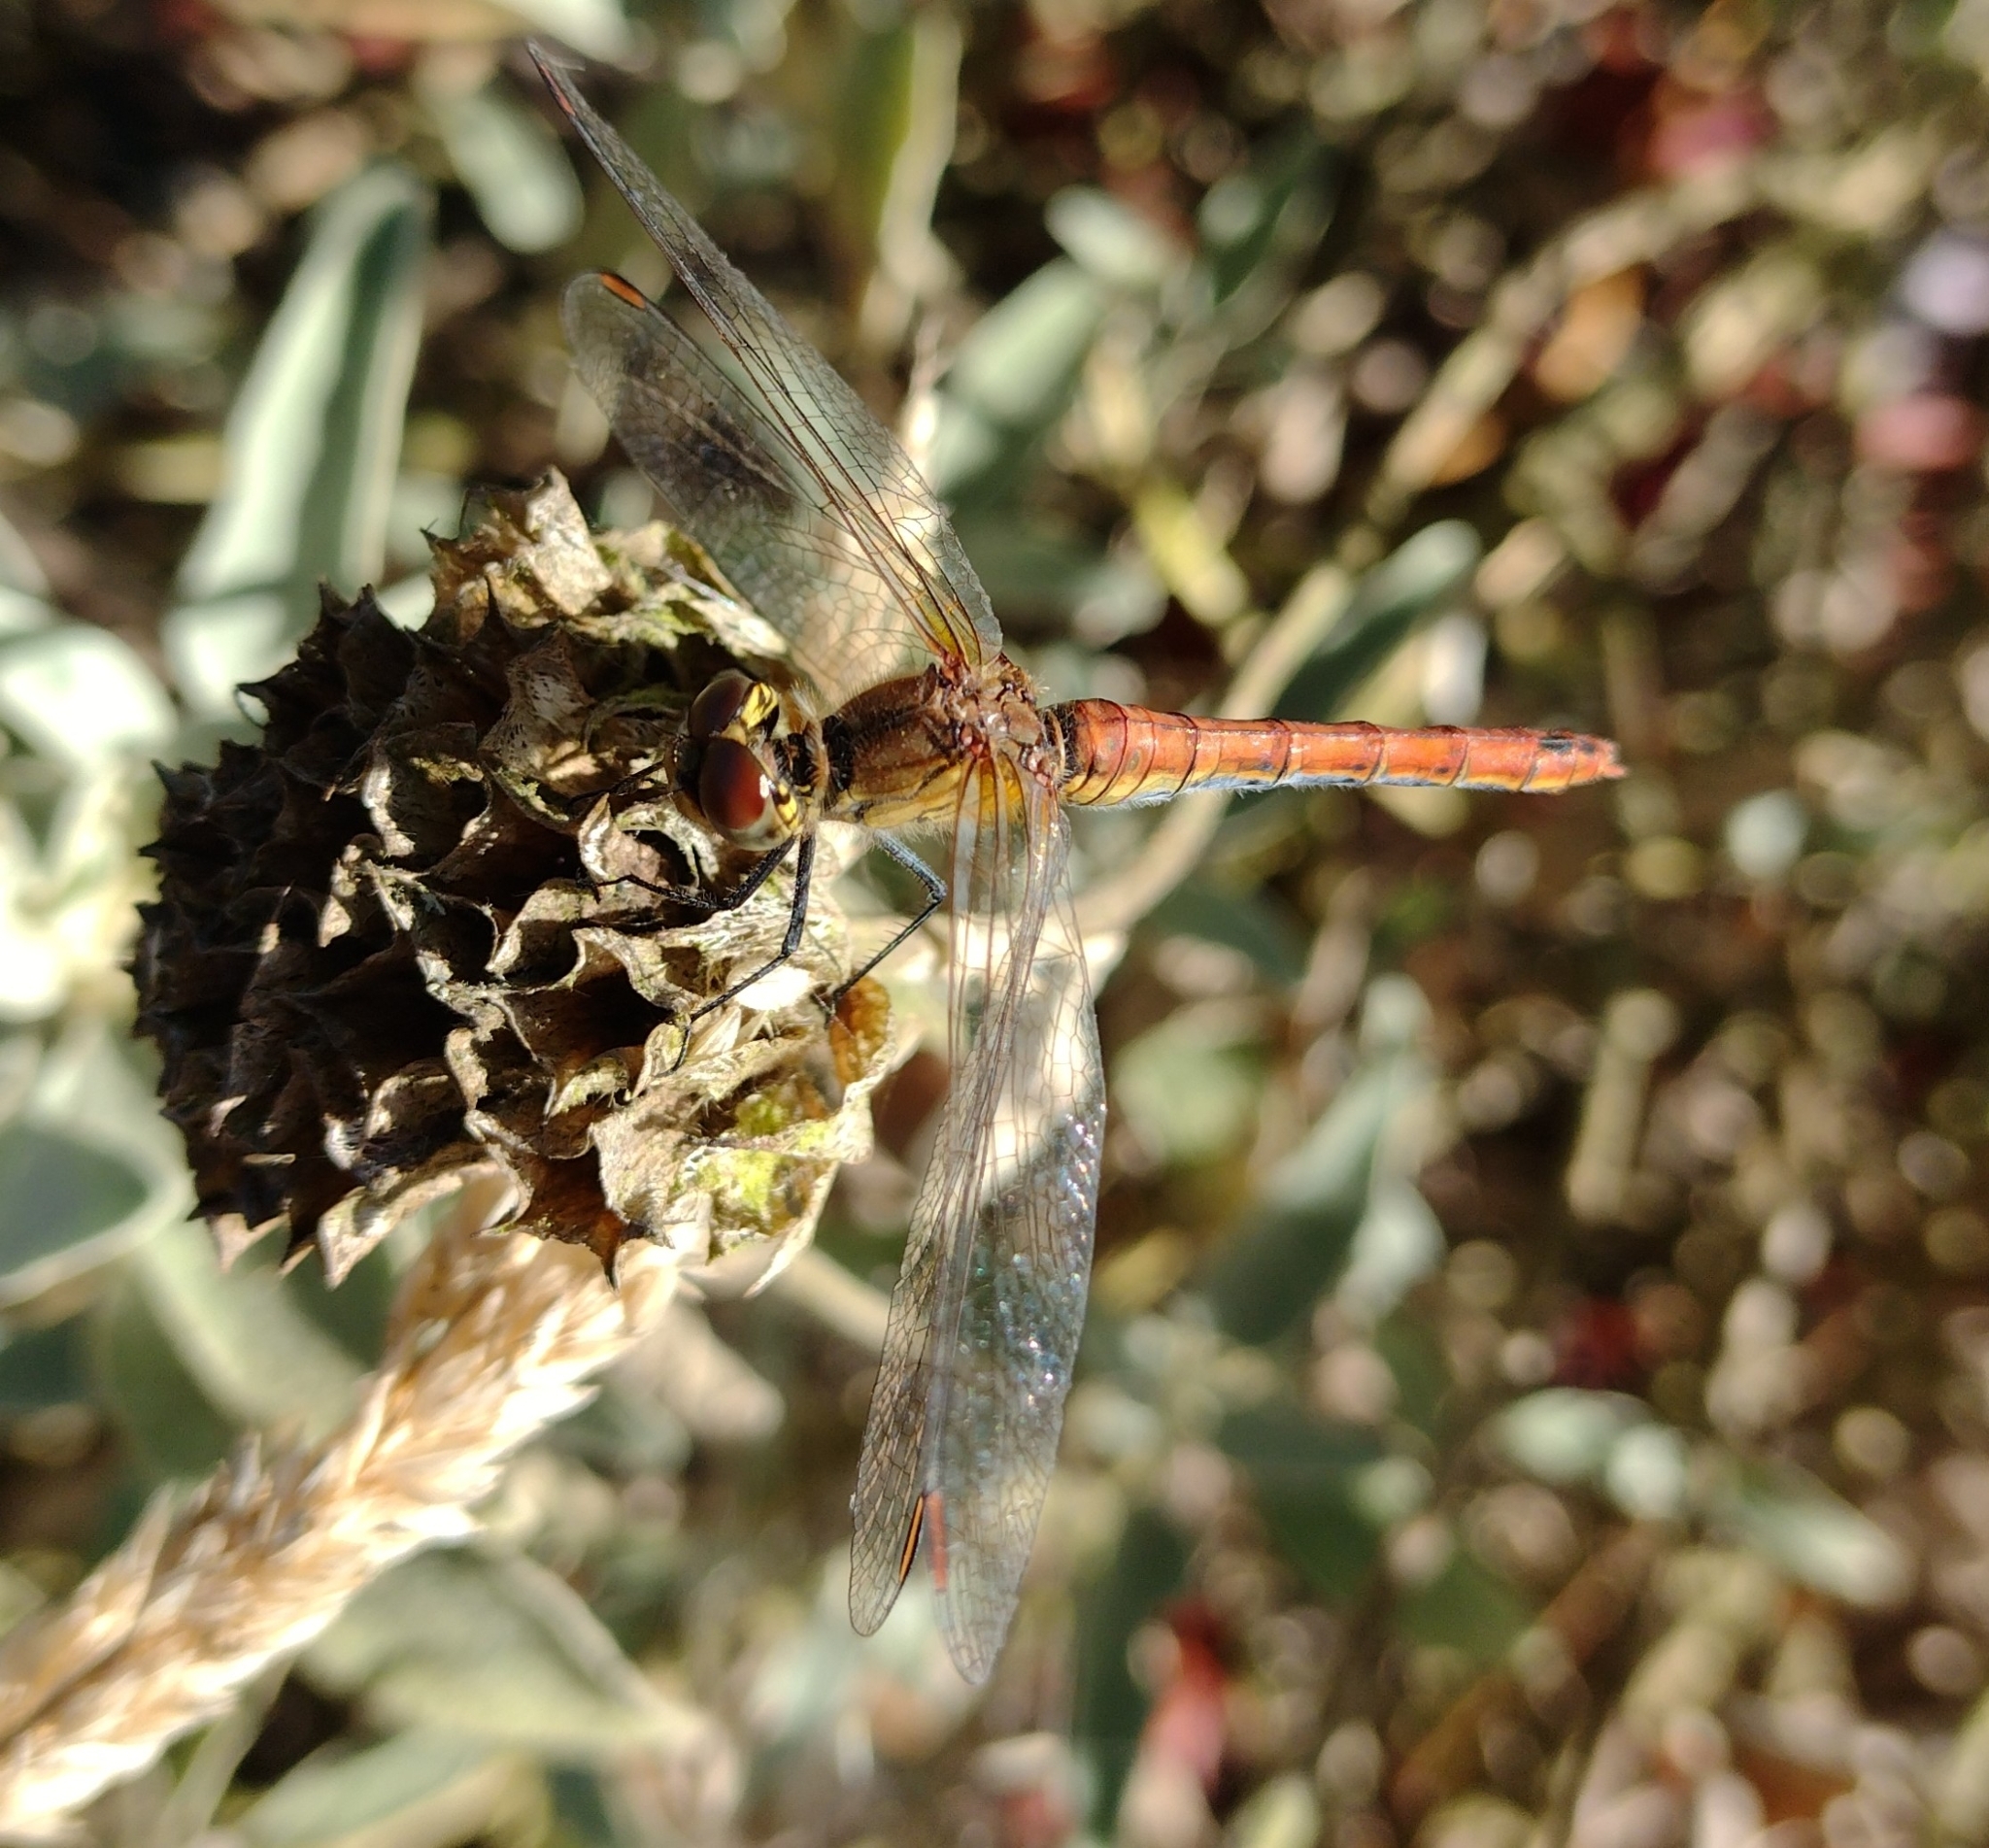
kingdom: Animalia
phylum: Arthropoda
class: Insecta
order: Odonata
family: Libellulidae
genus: Sympetrum
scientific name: Sympetrum sanguineum
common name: Ruddy darter
